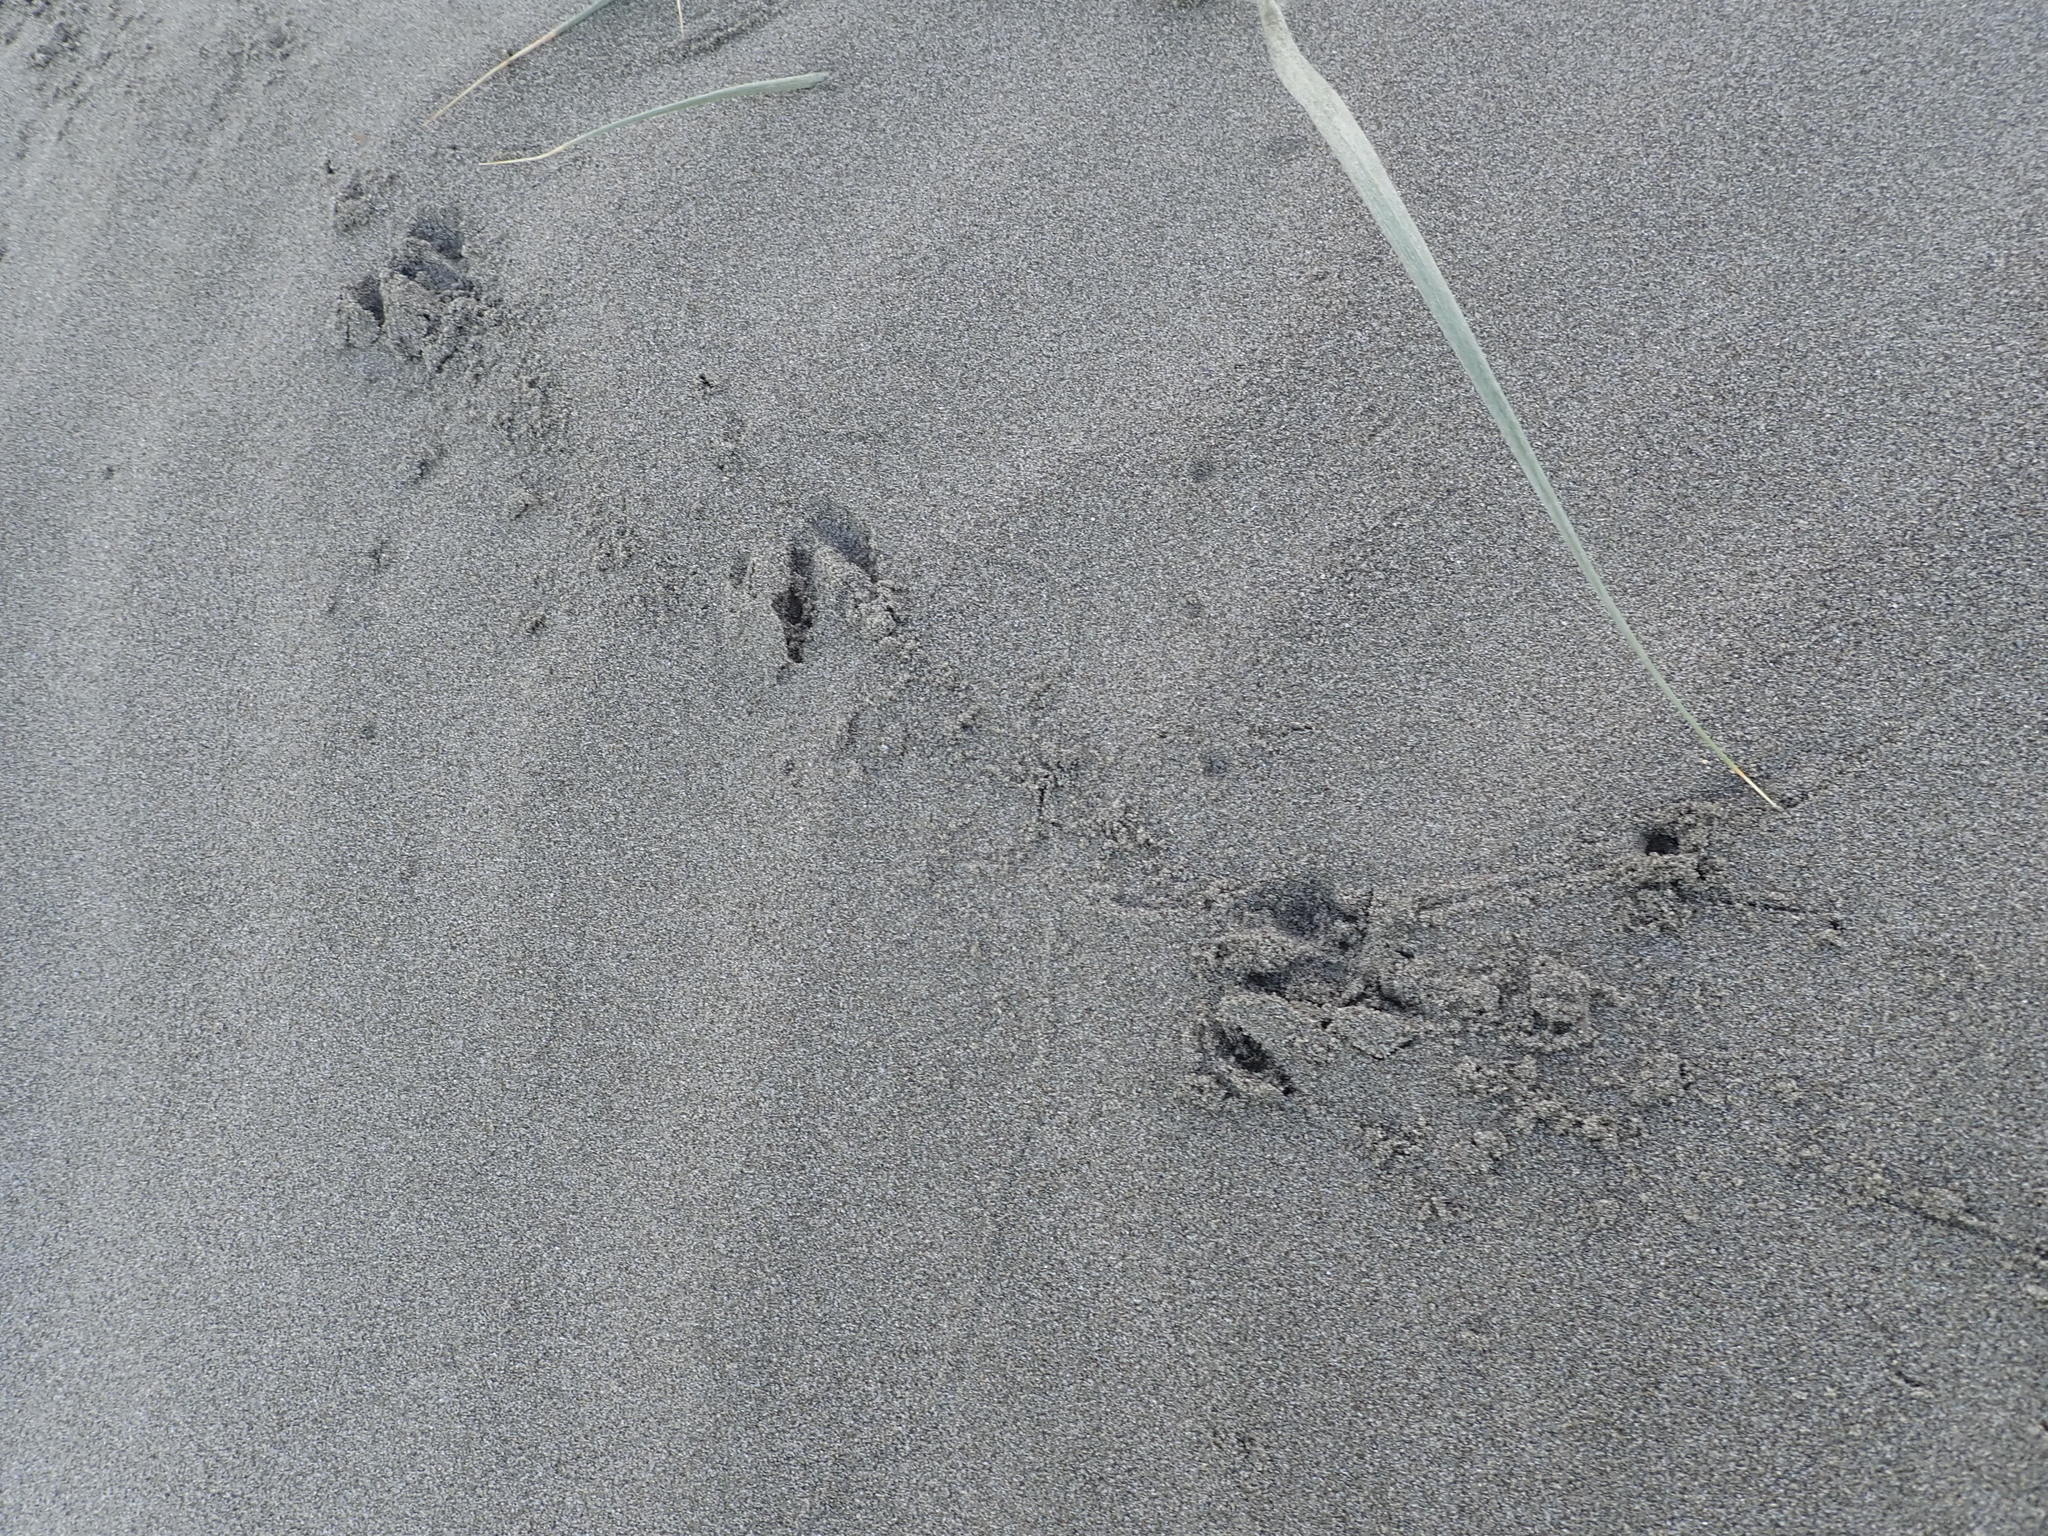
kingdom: Animalia
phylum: Chordata
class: Aves
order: Passeriformes
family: Cracticidae
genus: Gymnorhina
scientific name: Gymnorhina tibicen
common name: Australian magpie
